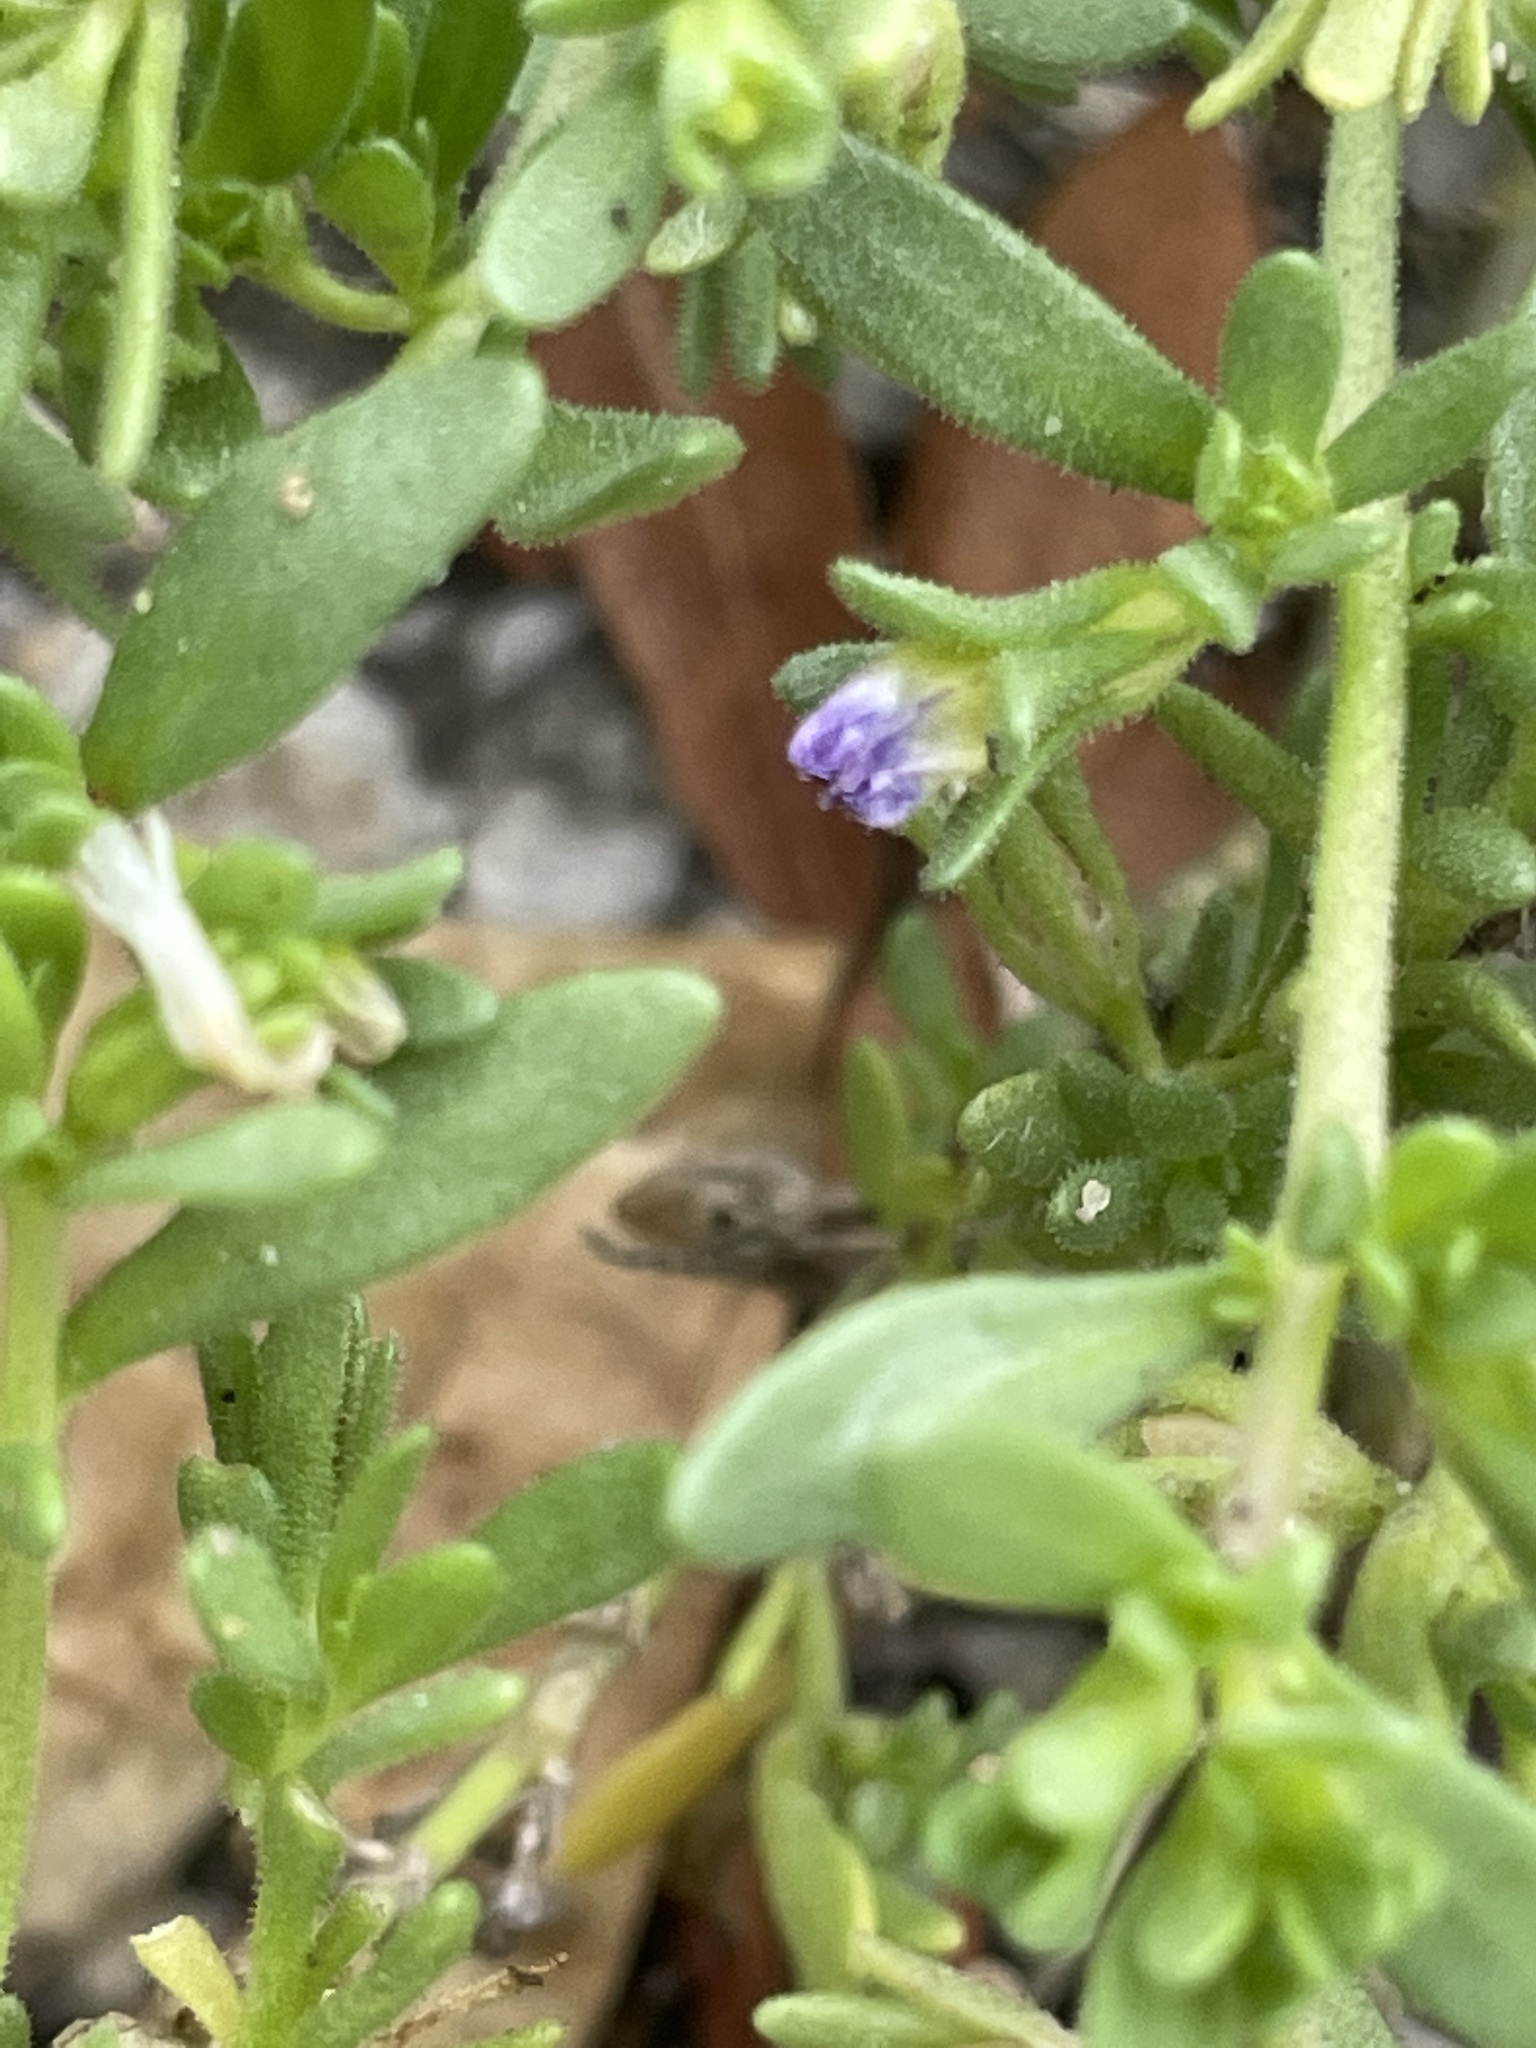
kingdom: Plantae
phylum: Tracheophyta
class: Magnoliopsida
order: Solanales
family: Solanaceae
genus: Calibrachoa
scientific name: Calibrachoa parviflora
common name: Seaside petunia
